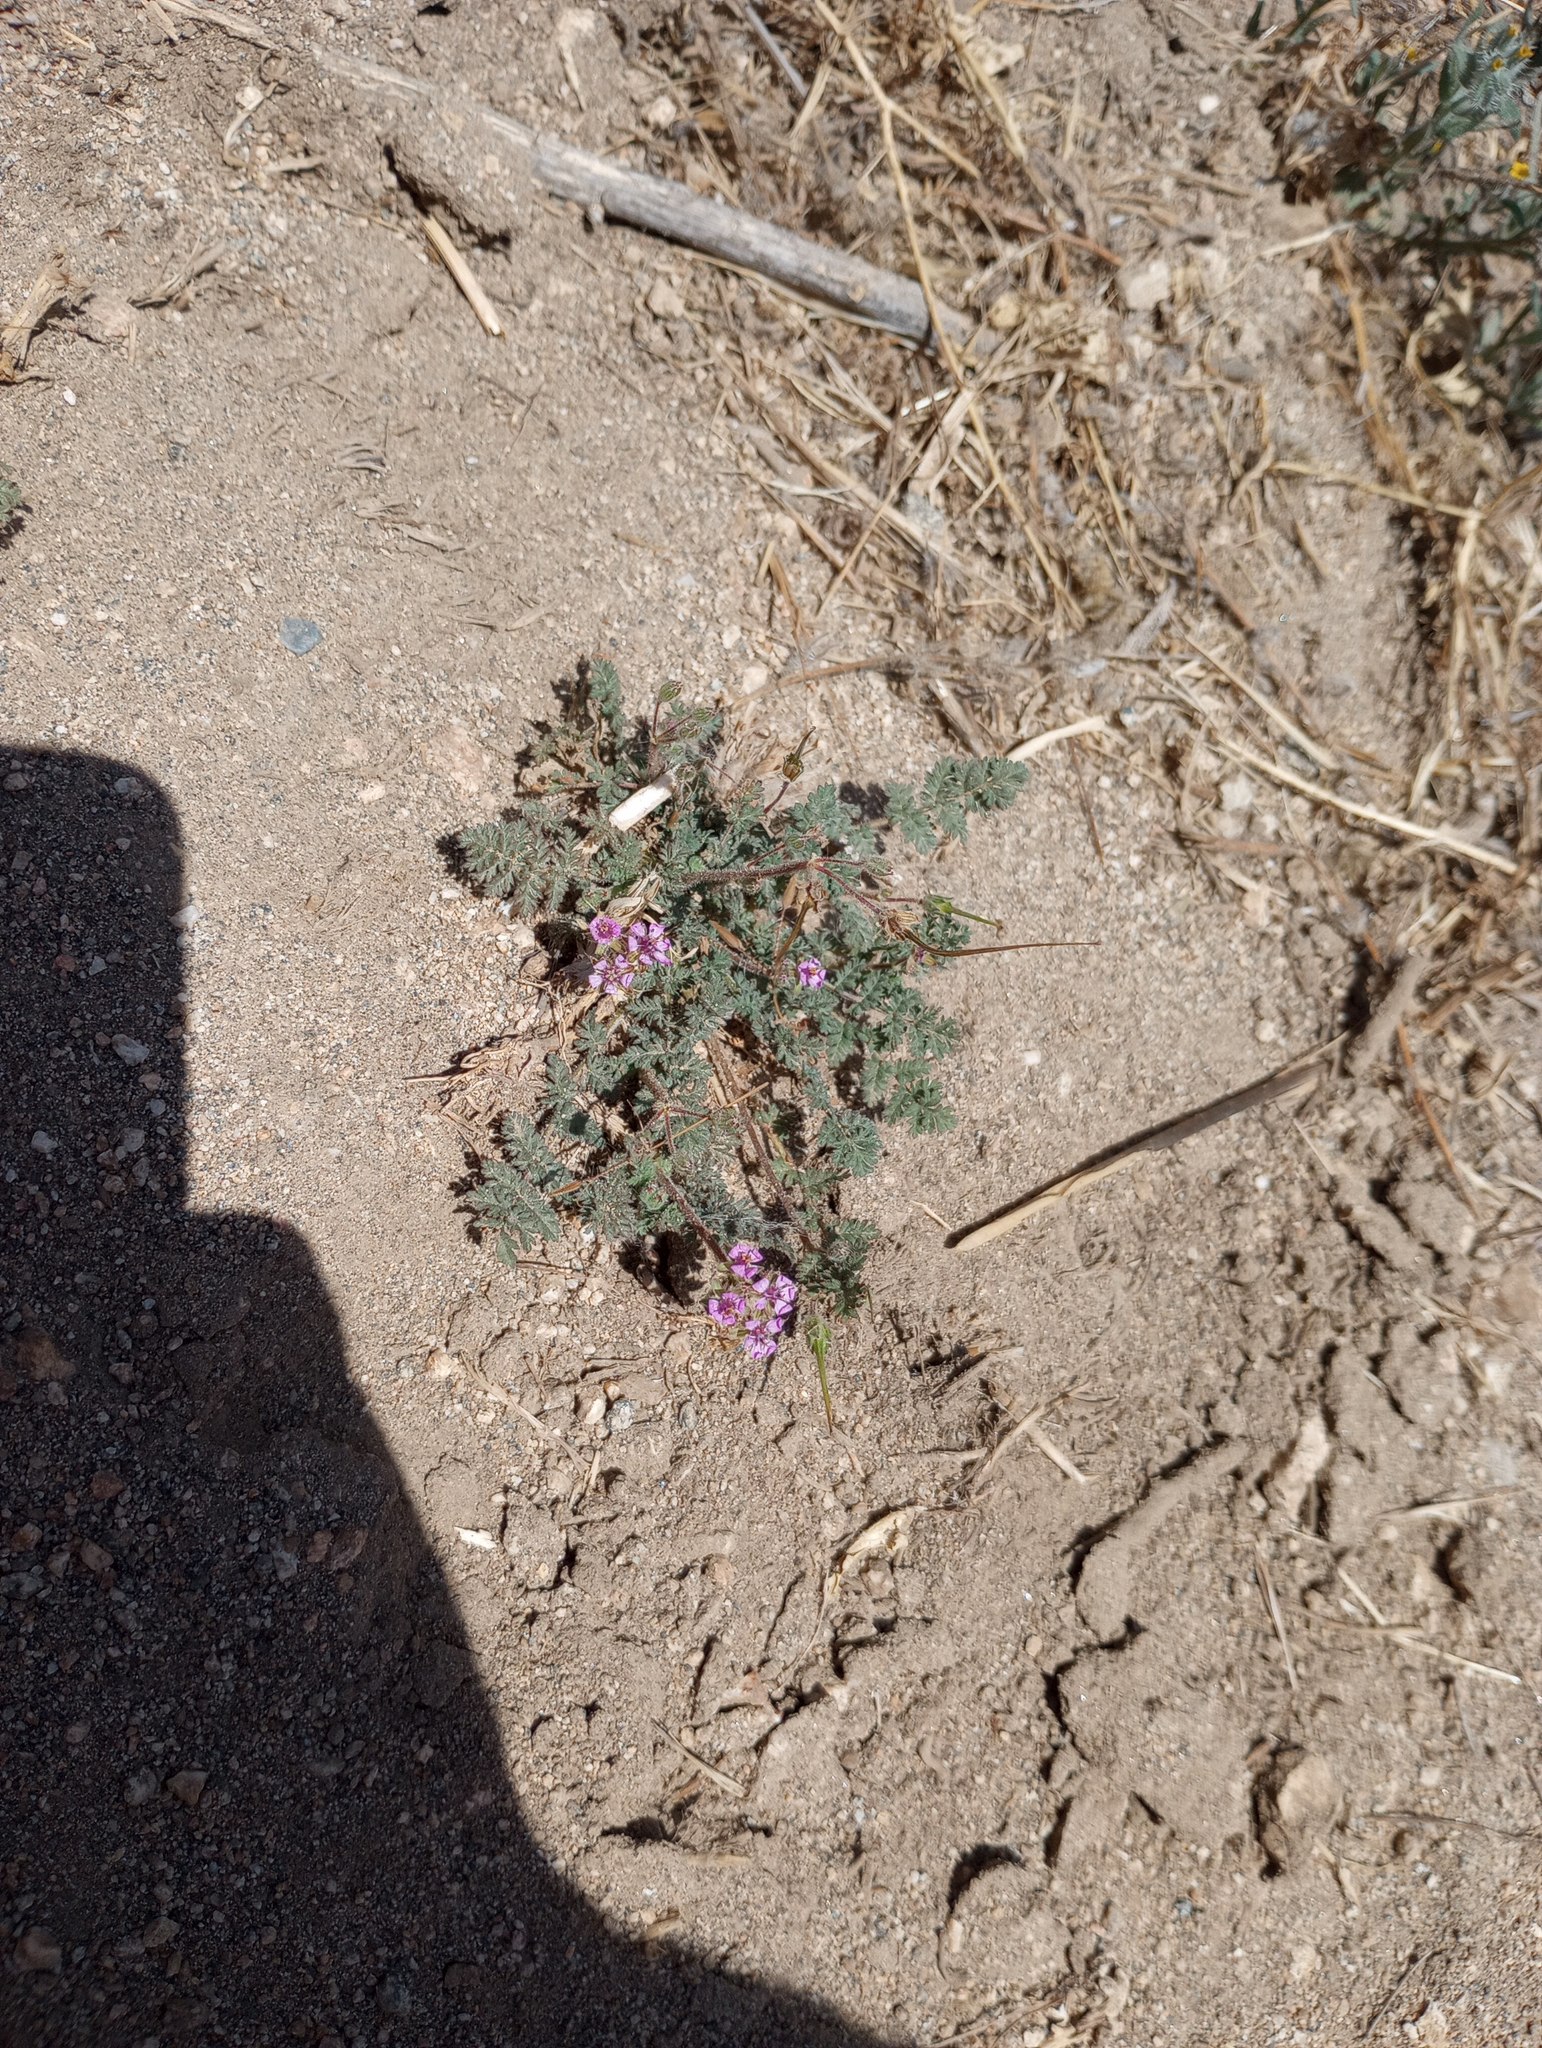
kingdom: Plantae
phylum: Tracheophyta
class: Magnoliopsida
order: Geraniales
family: Geraniaceae
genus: Erodium
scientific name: Erodium cicutarium
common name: Common stork's-bill
